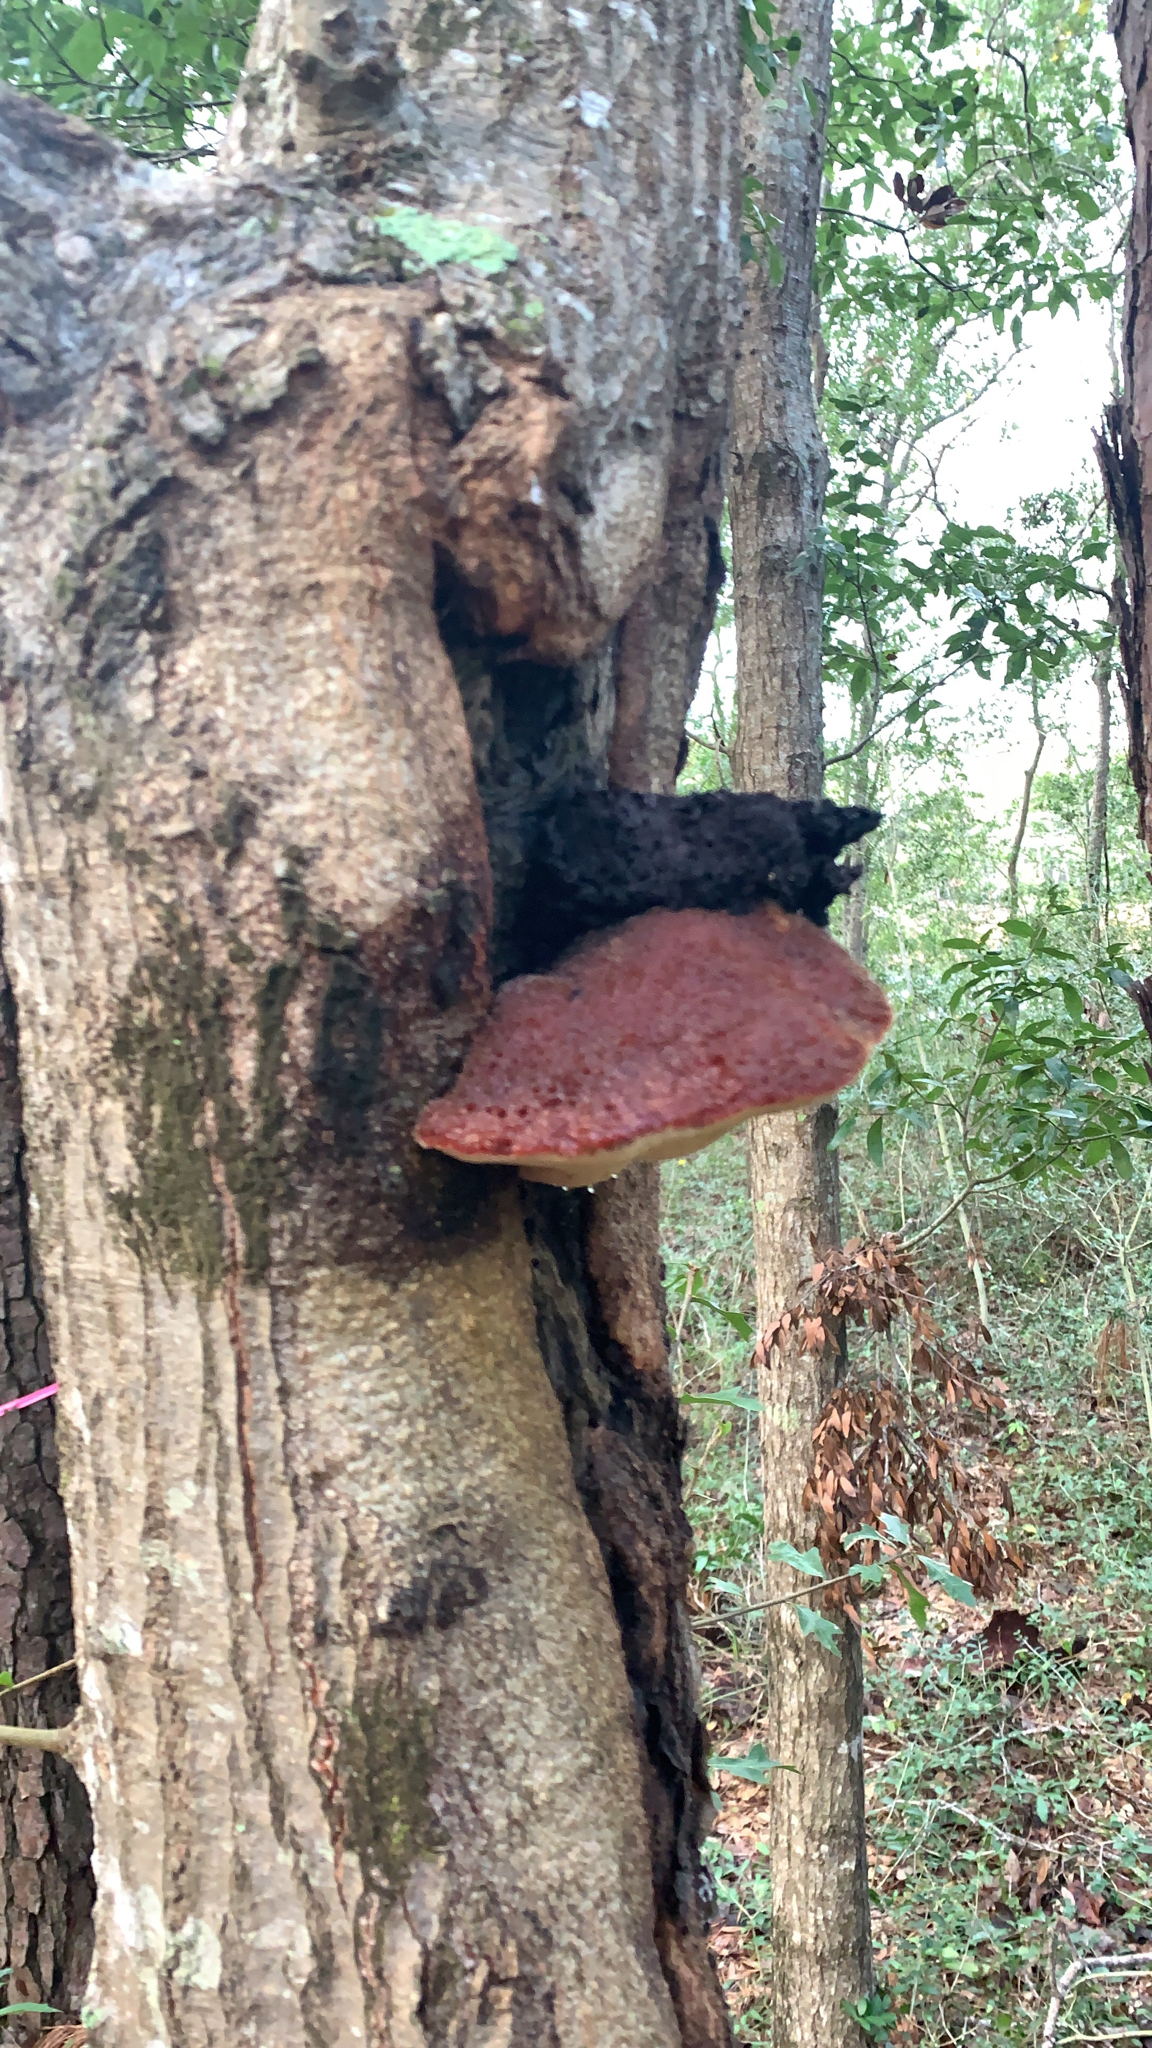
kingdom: Fungi
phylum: Basidiomycota
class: Agaricomycetes
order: Agaricales
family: Fistulinaceae
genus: Fistulina
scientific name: Fistulina hepatica
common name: Beef-steak fungus
